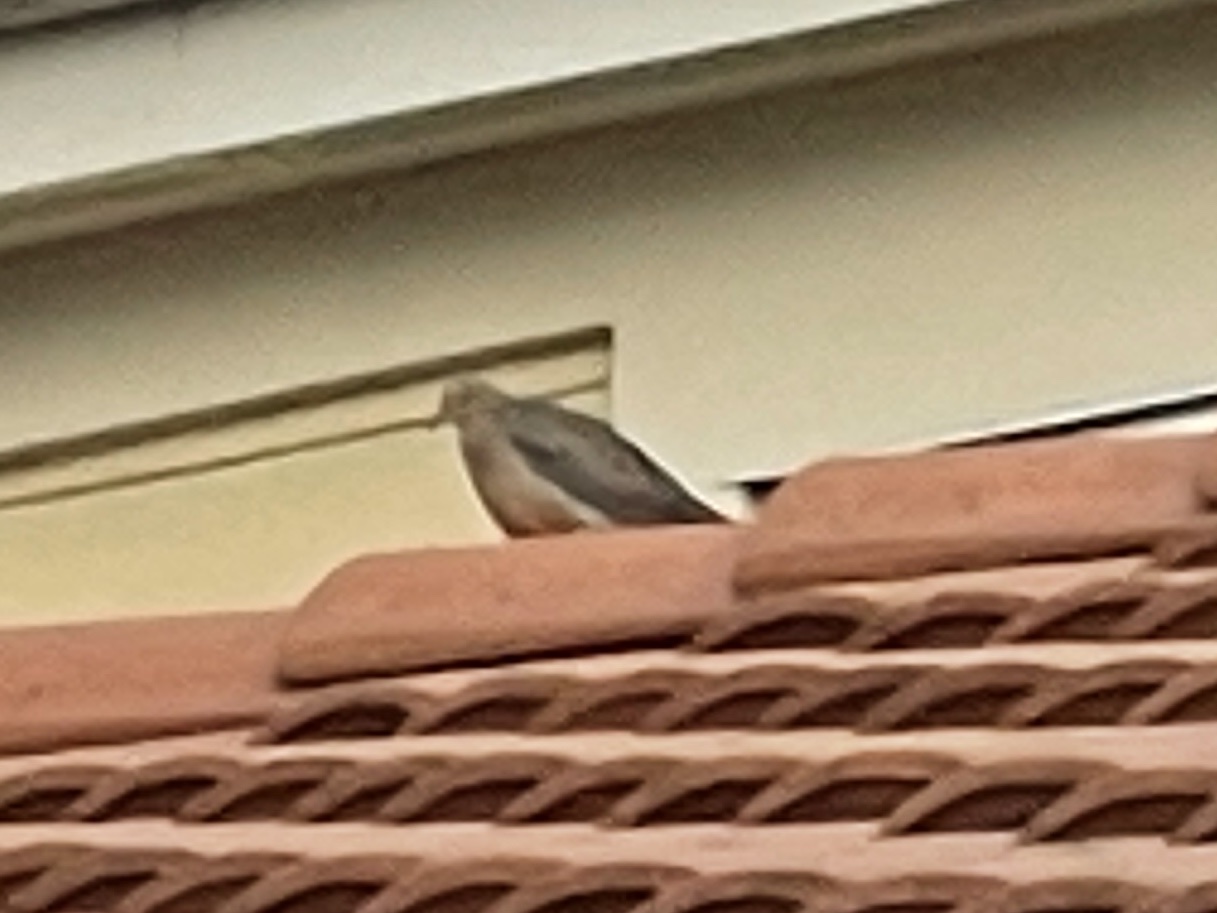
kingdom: Animalia
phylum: Chordata
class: Aves
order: Columbiformes
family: Columbidae
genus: Zenaida
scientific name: Zenaida macroura
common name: Mourning dove
